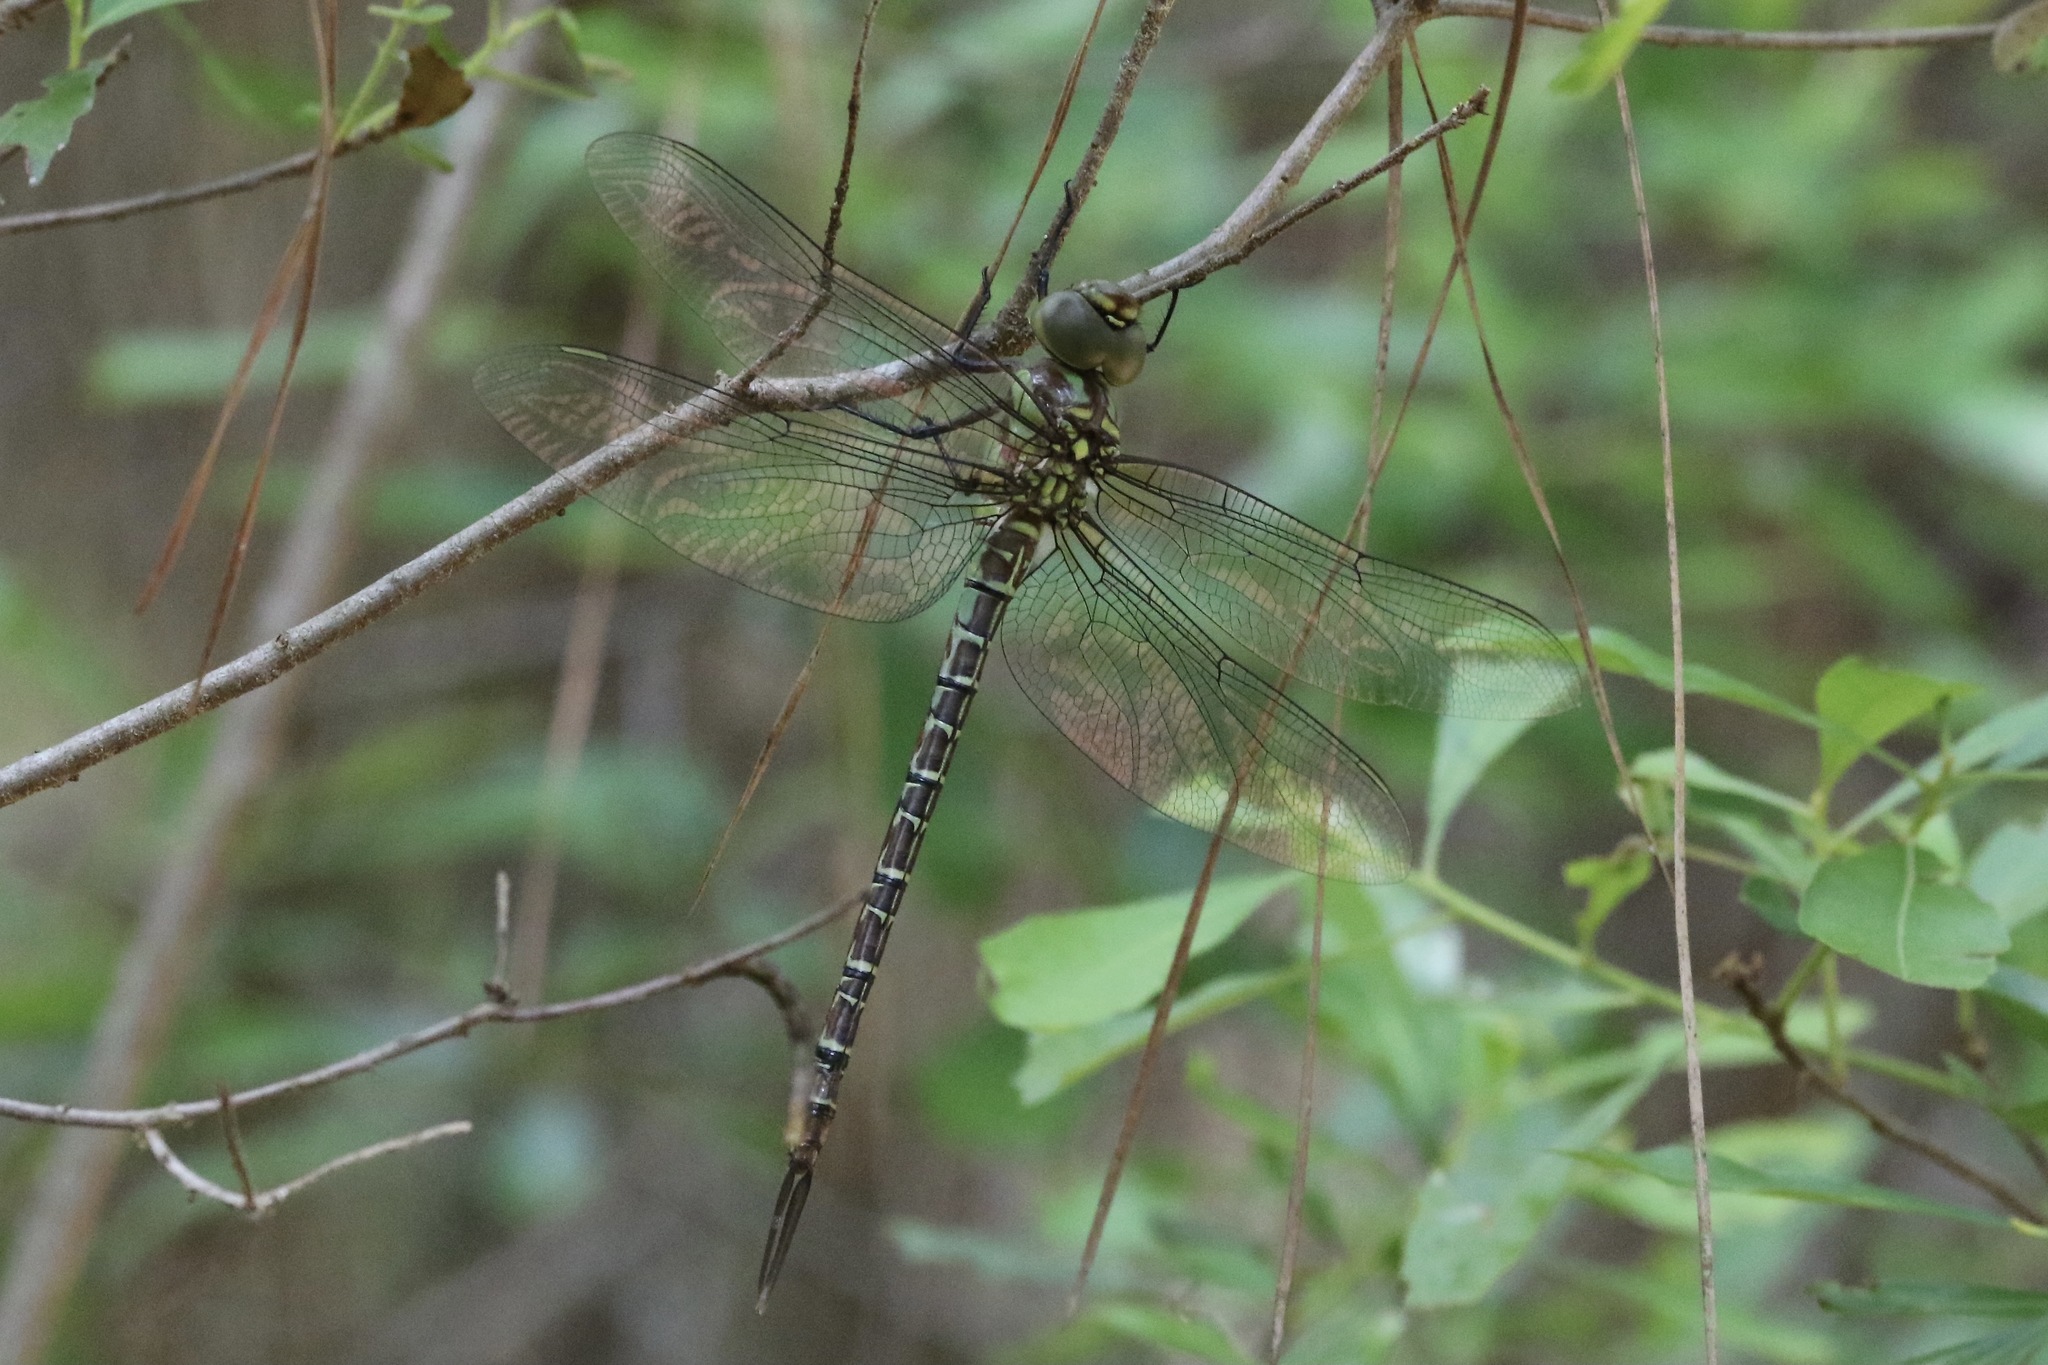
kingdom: Animalia
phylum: Arthropoda
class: Insecta
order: Odonata
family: Aeshnidae
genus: Coryphaeschna
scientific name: Coryphaeschna ingens
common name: Regal darner
